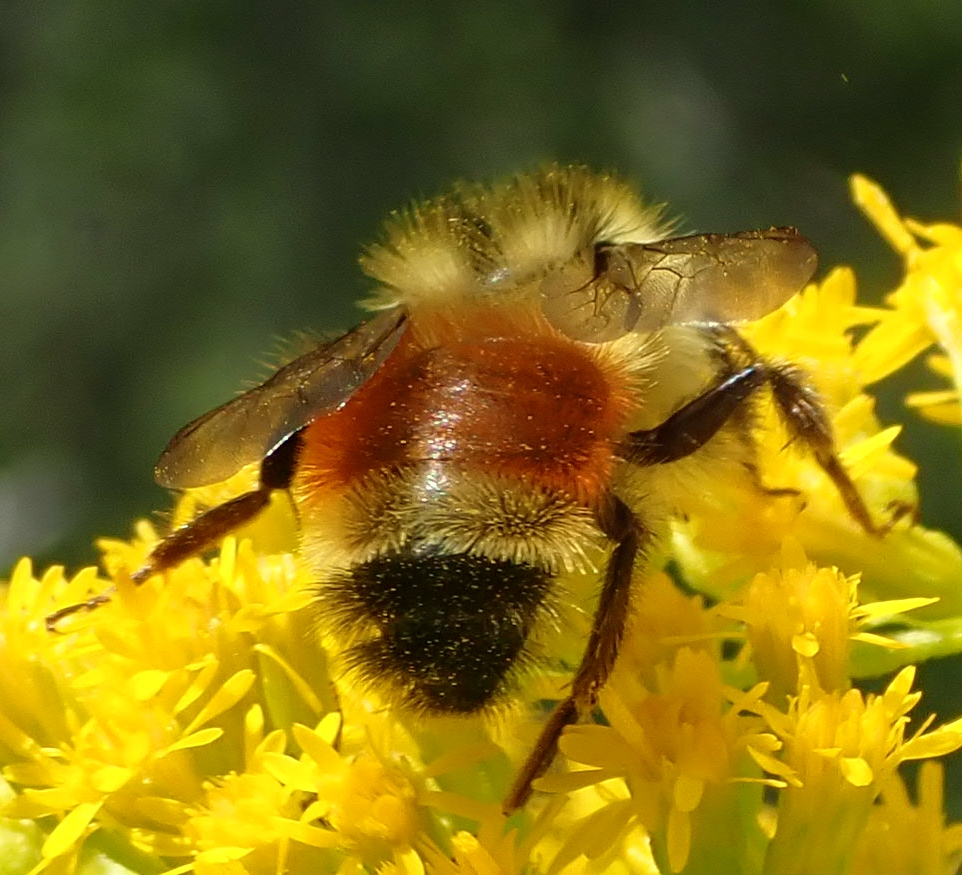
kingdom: Animalia
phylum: Arthropoda
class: Insecta
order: Hymenoptera
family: Apidae
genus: Bombus
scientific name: Bombus ternarius
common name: Tri-colored bumble bee
